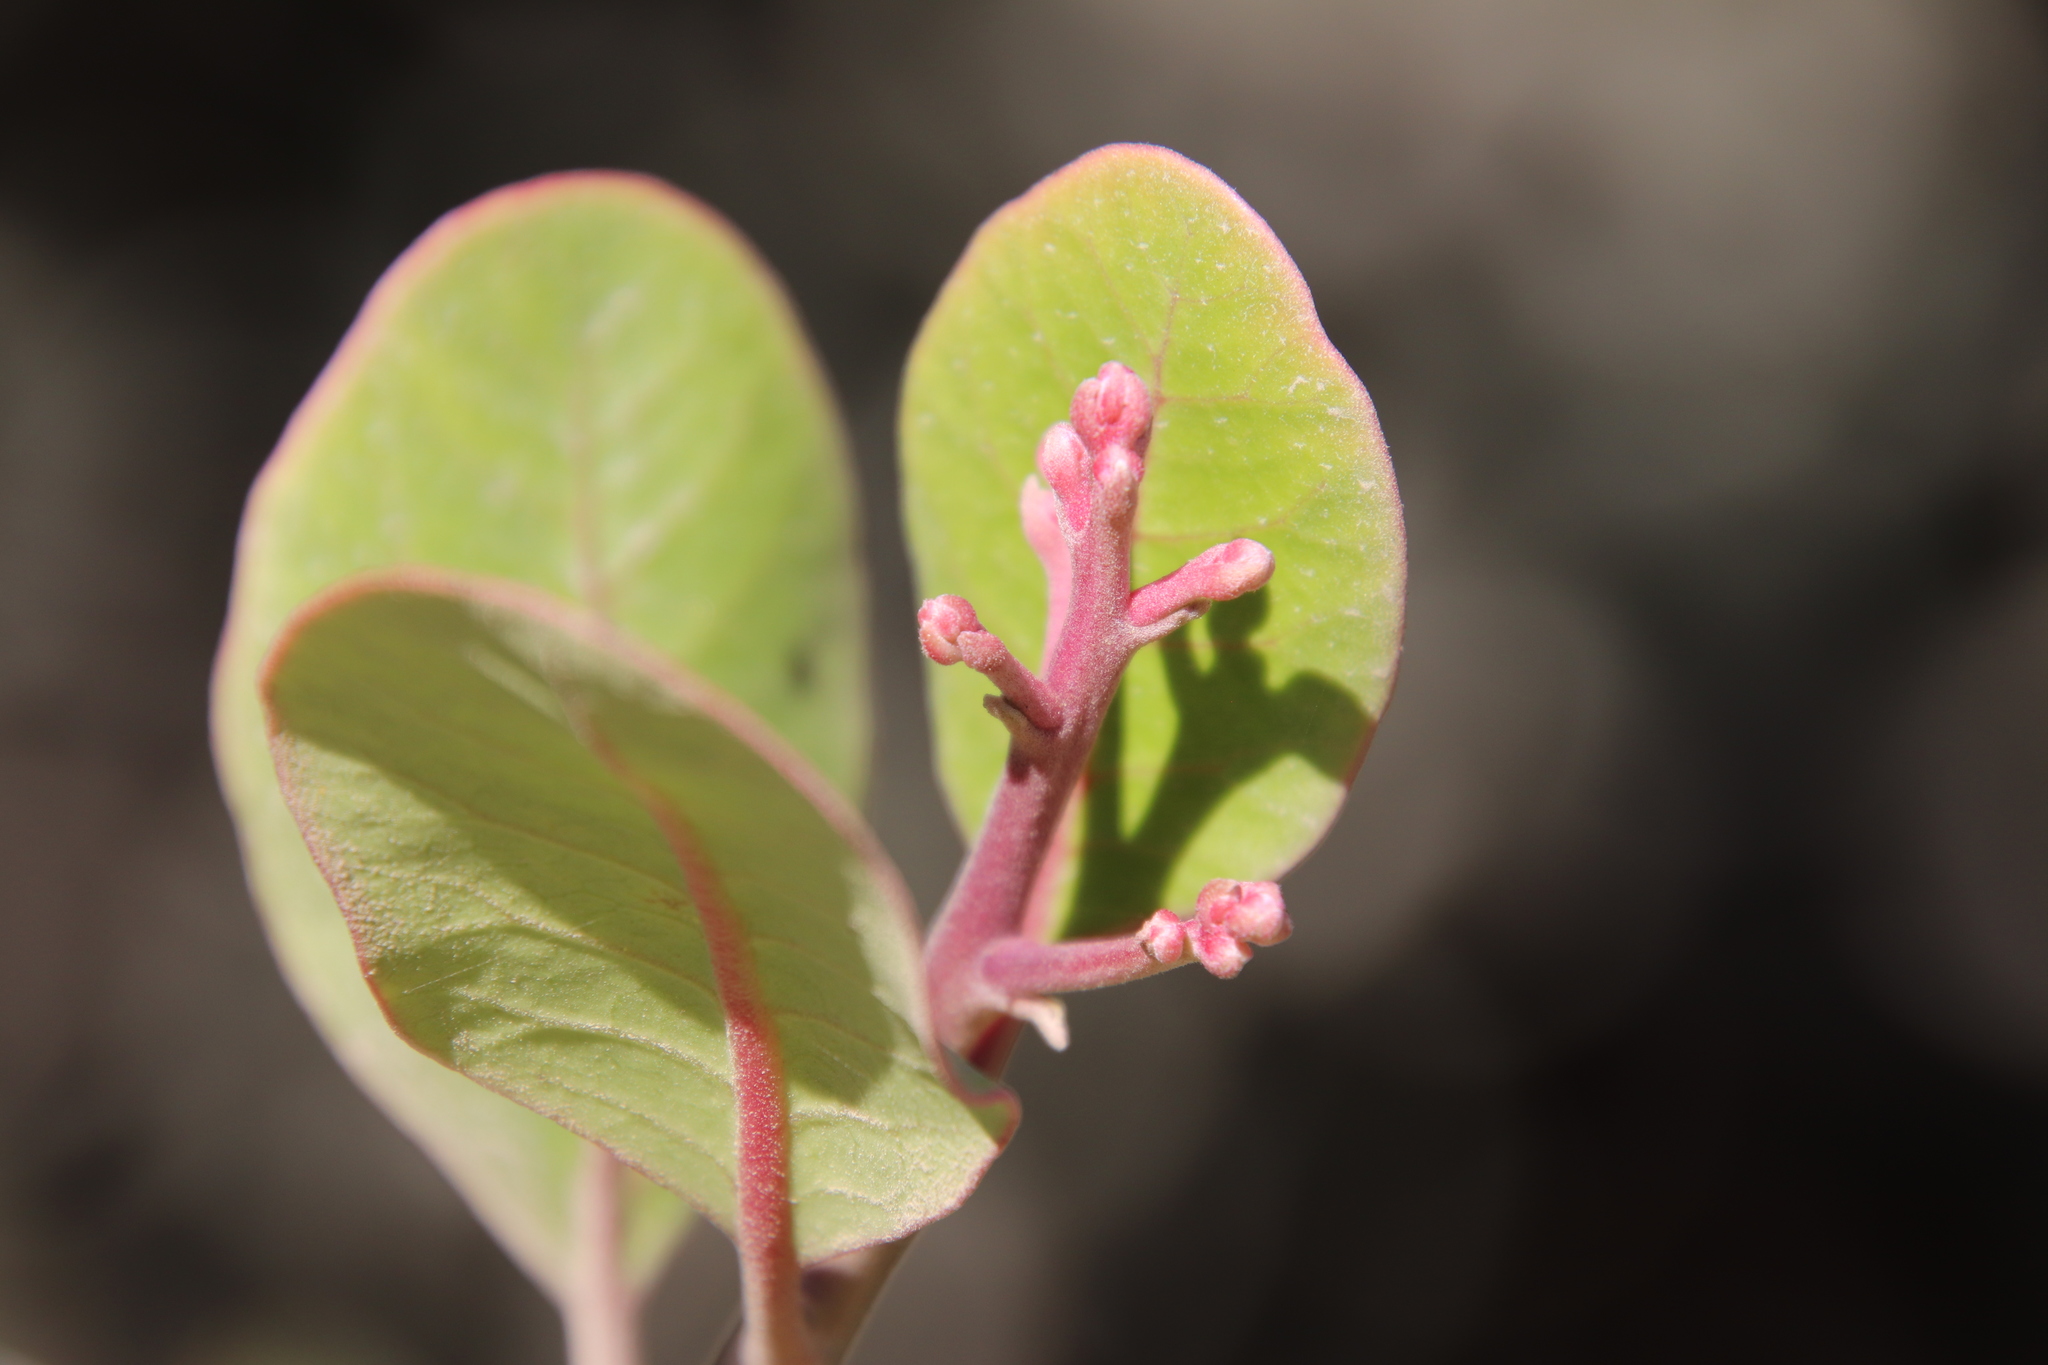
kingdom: Plantae
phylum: Tracheophyta
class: Magnoliopsida
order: Sapindales
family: Anacardiaceae
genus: Rhus
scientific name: Rhus integrifolia
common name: Lemonade sumac
